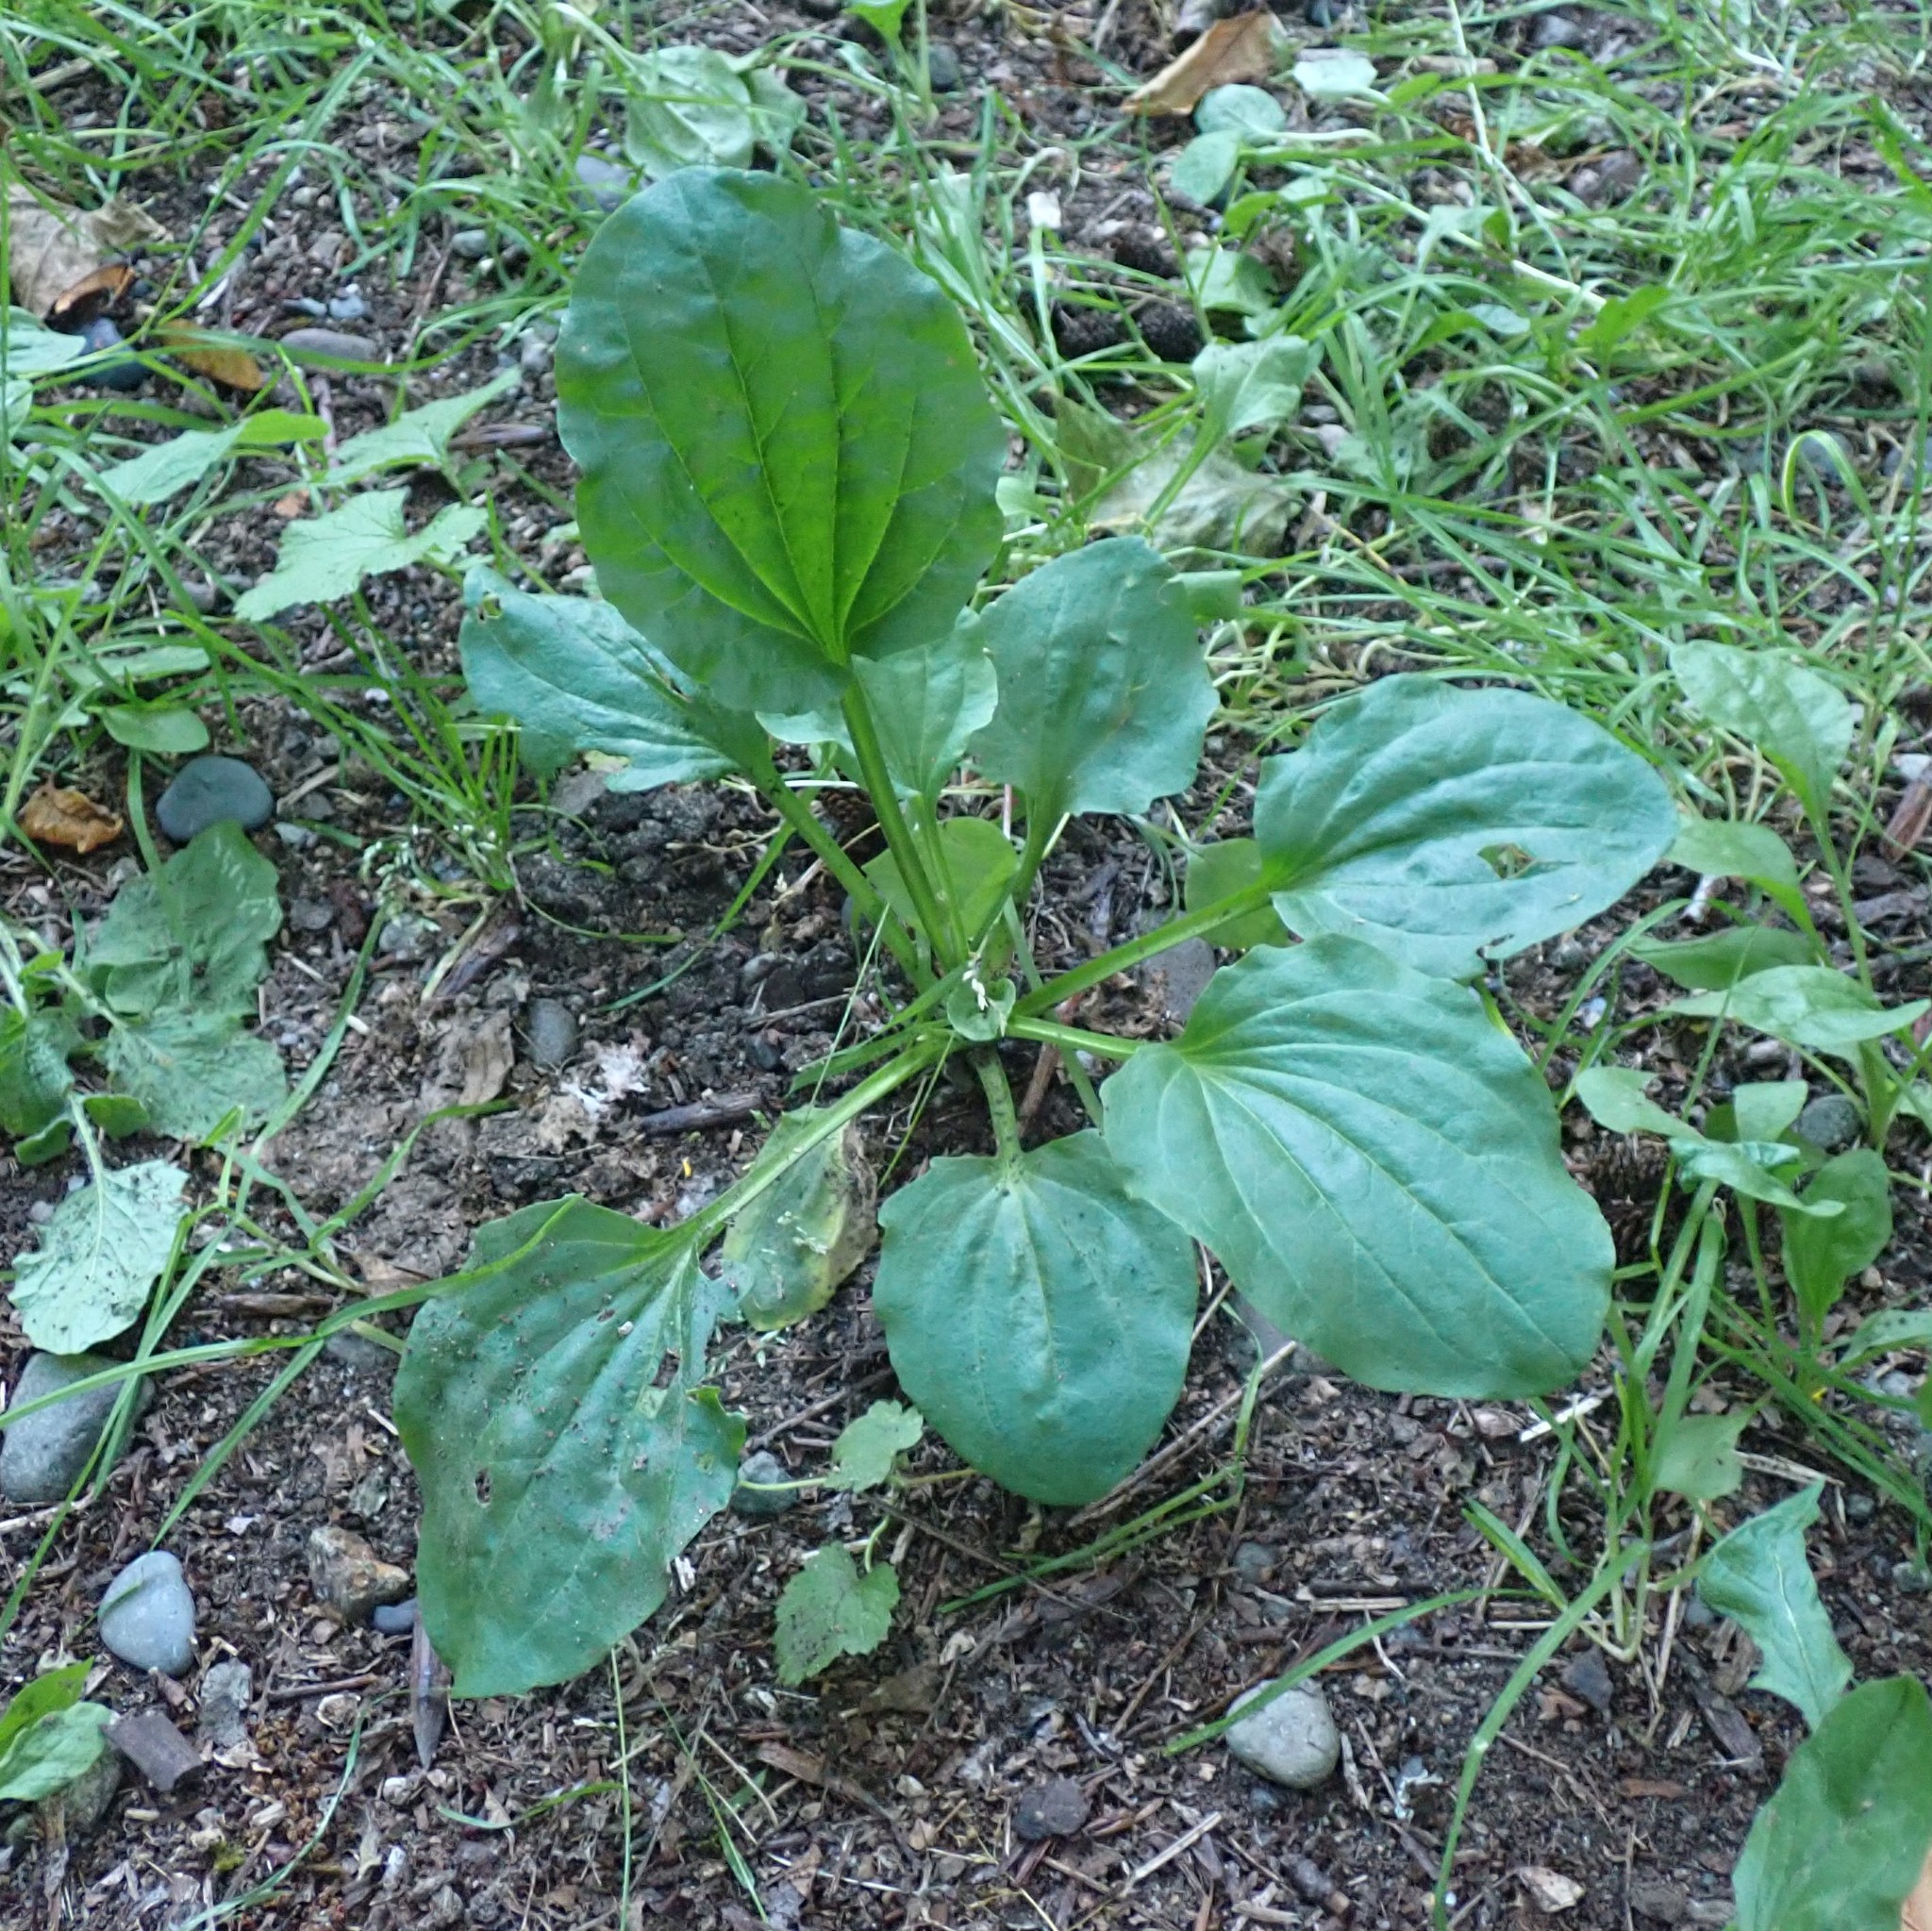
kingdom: Plantae
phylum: Tracheophyta
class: Magnoliopsida
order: Lamiales
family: Plantaginaceae
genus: Plantago
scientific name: Plantago major
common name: Common plantain
